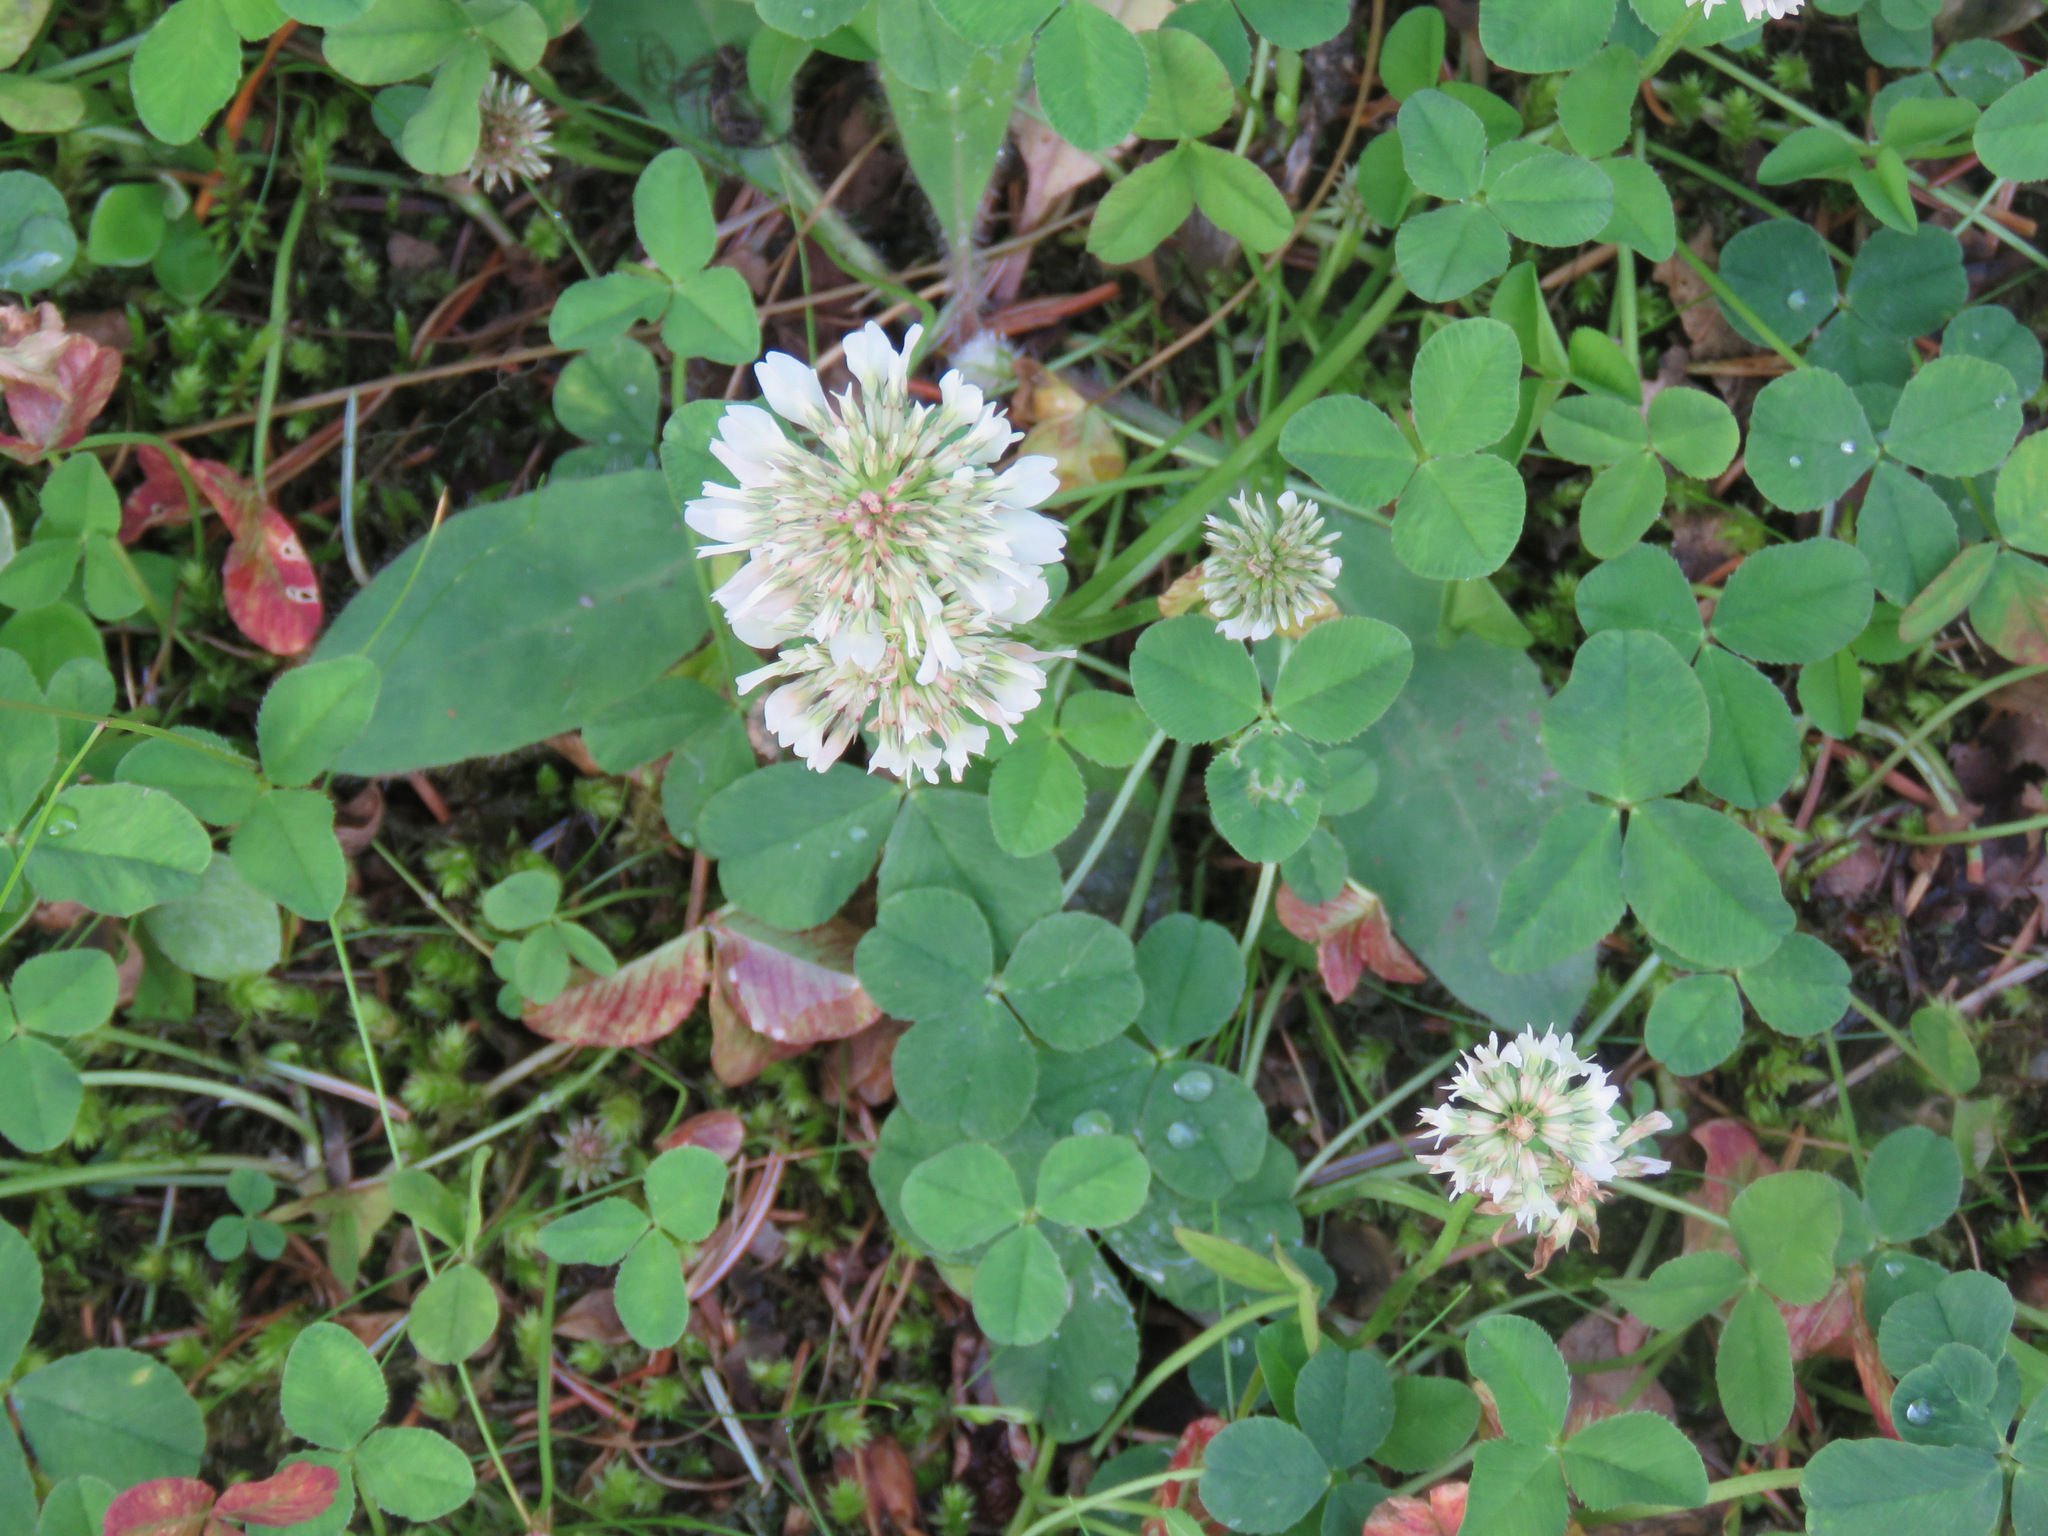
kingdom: Plantae
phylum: Tracheophyta
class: Magnoliopsida
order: Fabales
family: Fabaceae
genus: Trifolium
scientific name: Trifolium repens
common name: White clover
